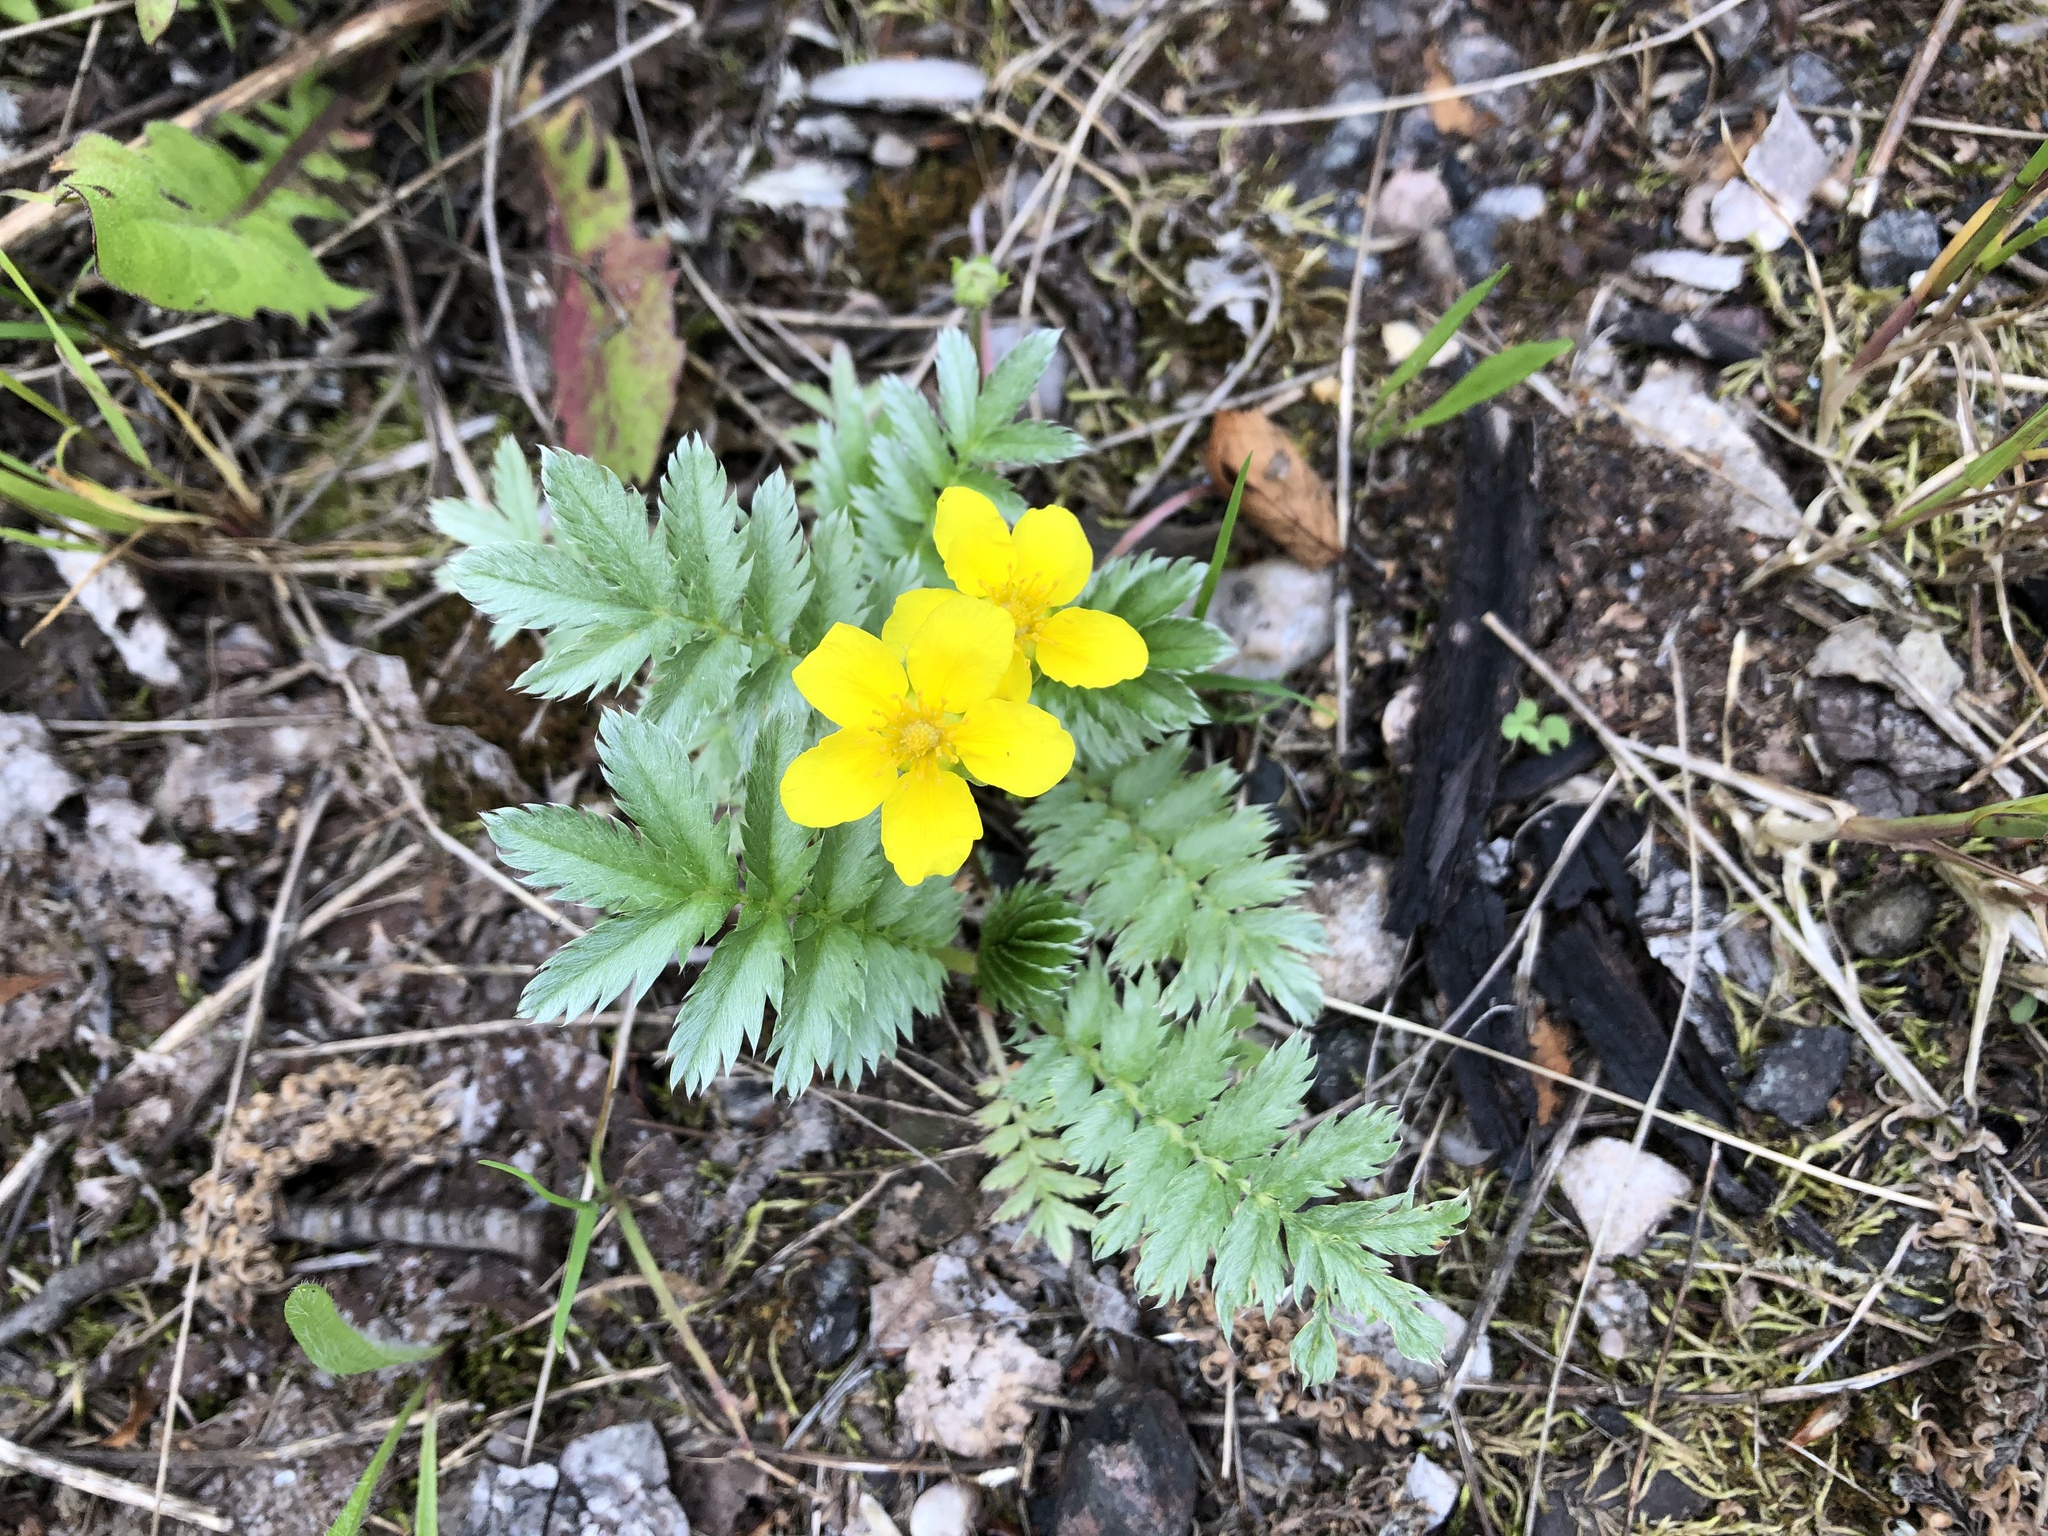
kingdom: Plantae
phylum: Tracheophyta
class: Magnoliopsida
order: Rosales
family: Rosaceae
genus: Argentina
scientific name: Argentina anserina
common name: Common silverweed
